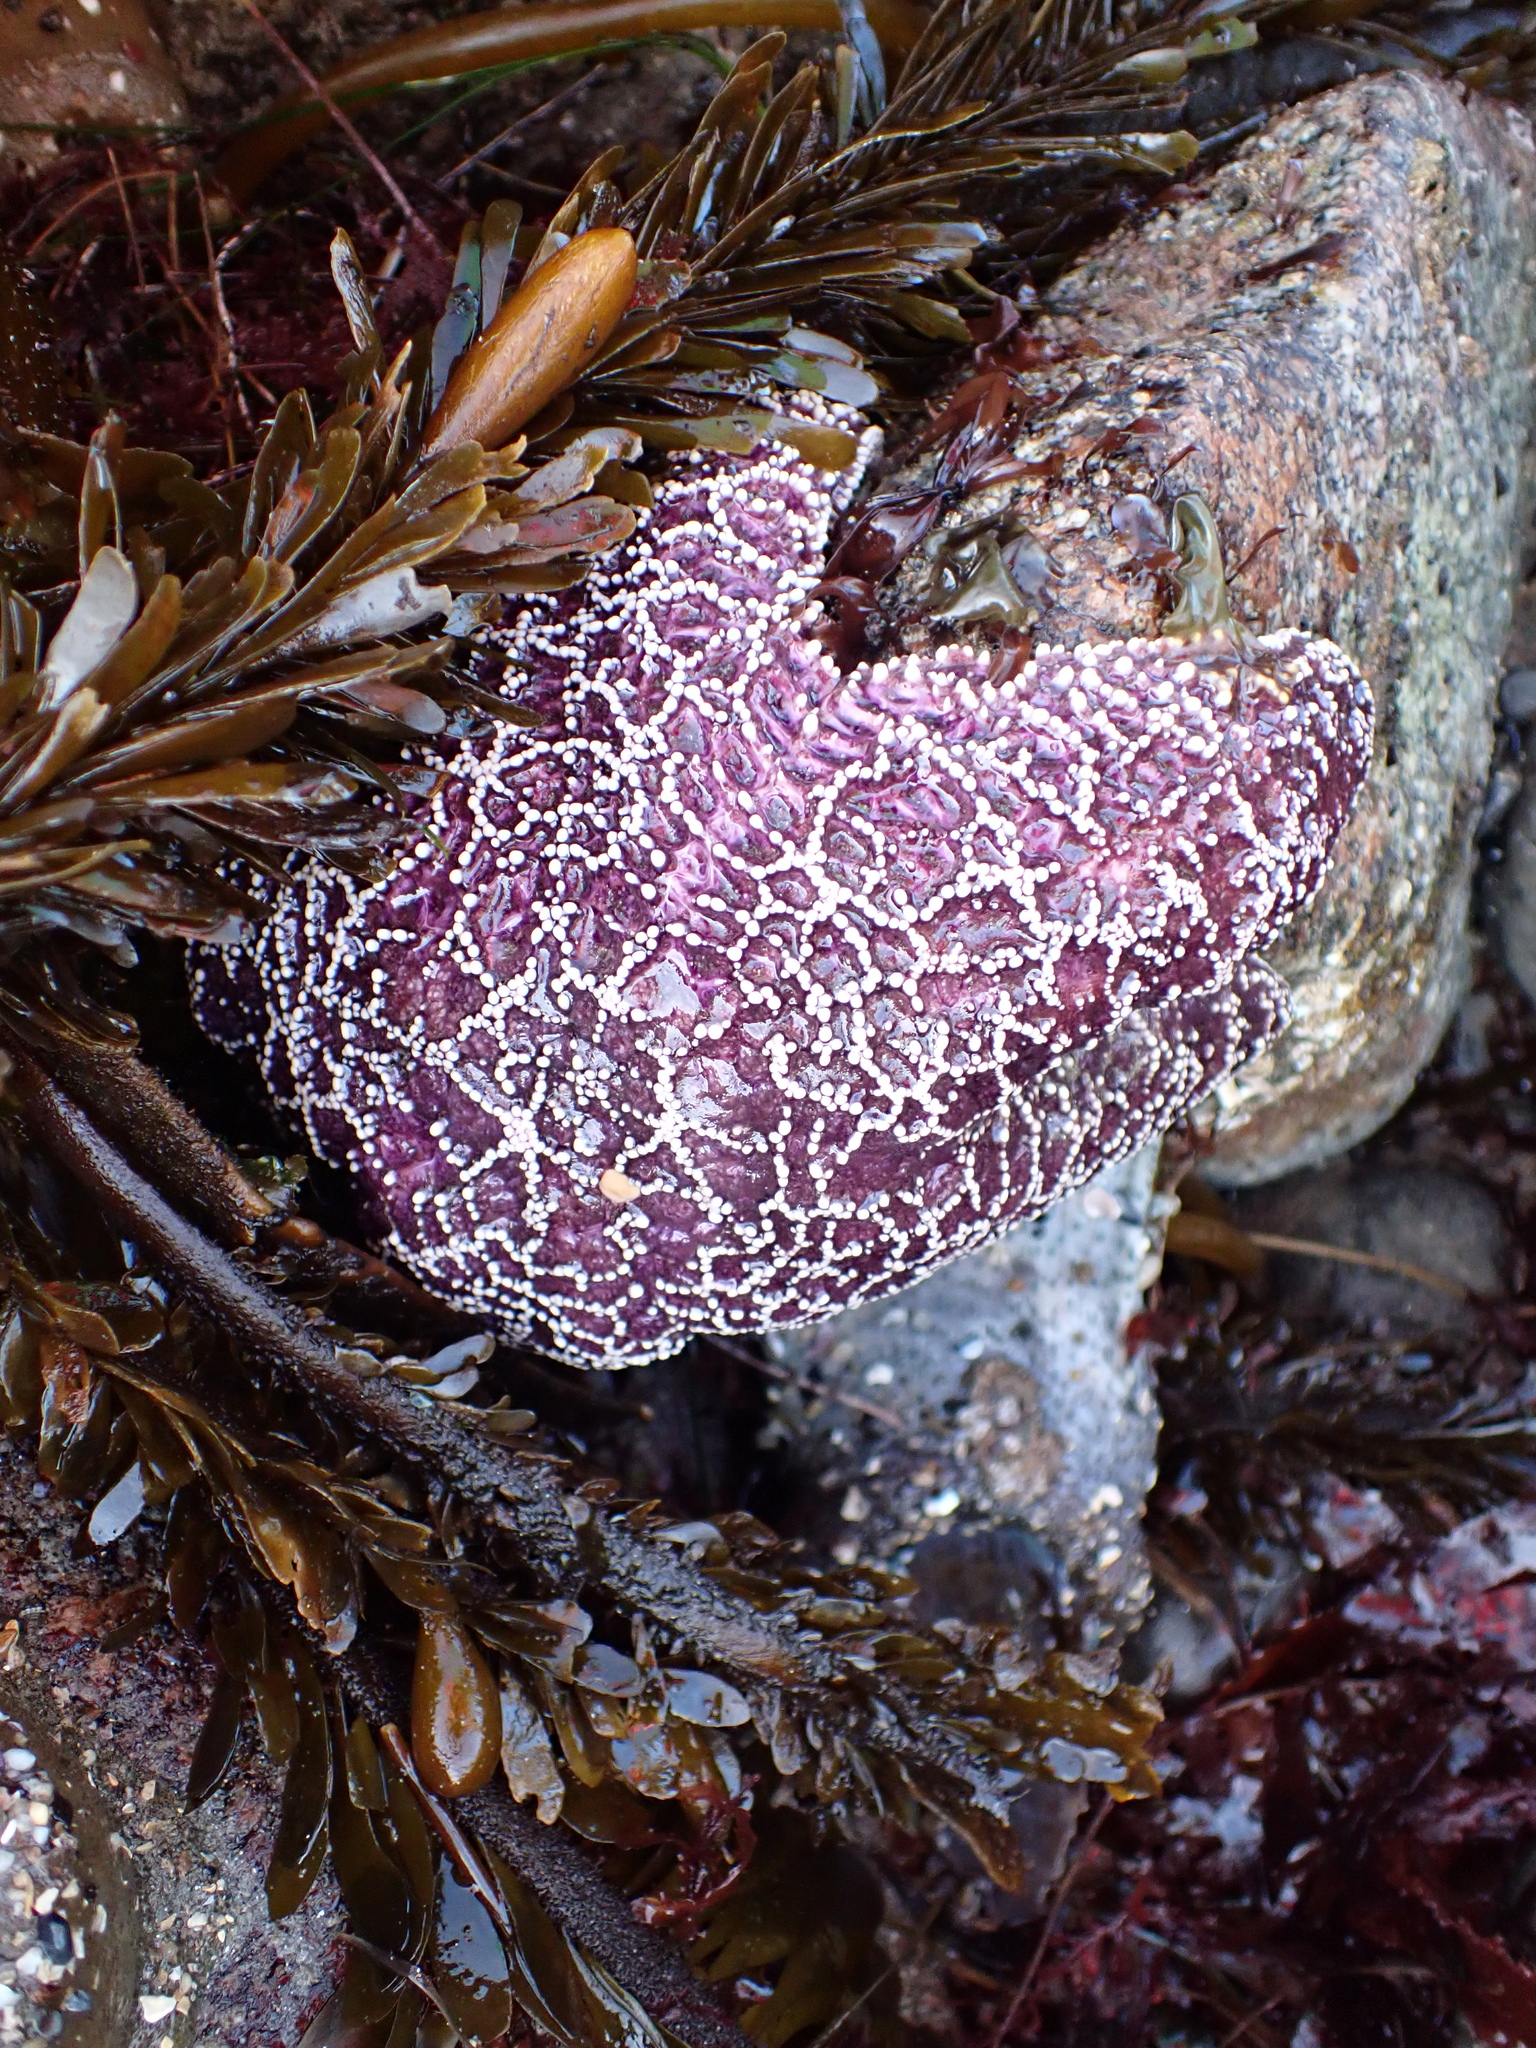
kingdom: Animalia
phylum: Echinodermata
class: Asteroidea
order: Forcipulatida
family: Asteriidae
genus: Pisaster
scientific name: Pisaster ochraceus
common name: Ochre stars
